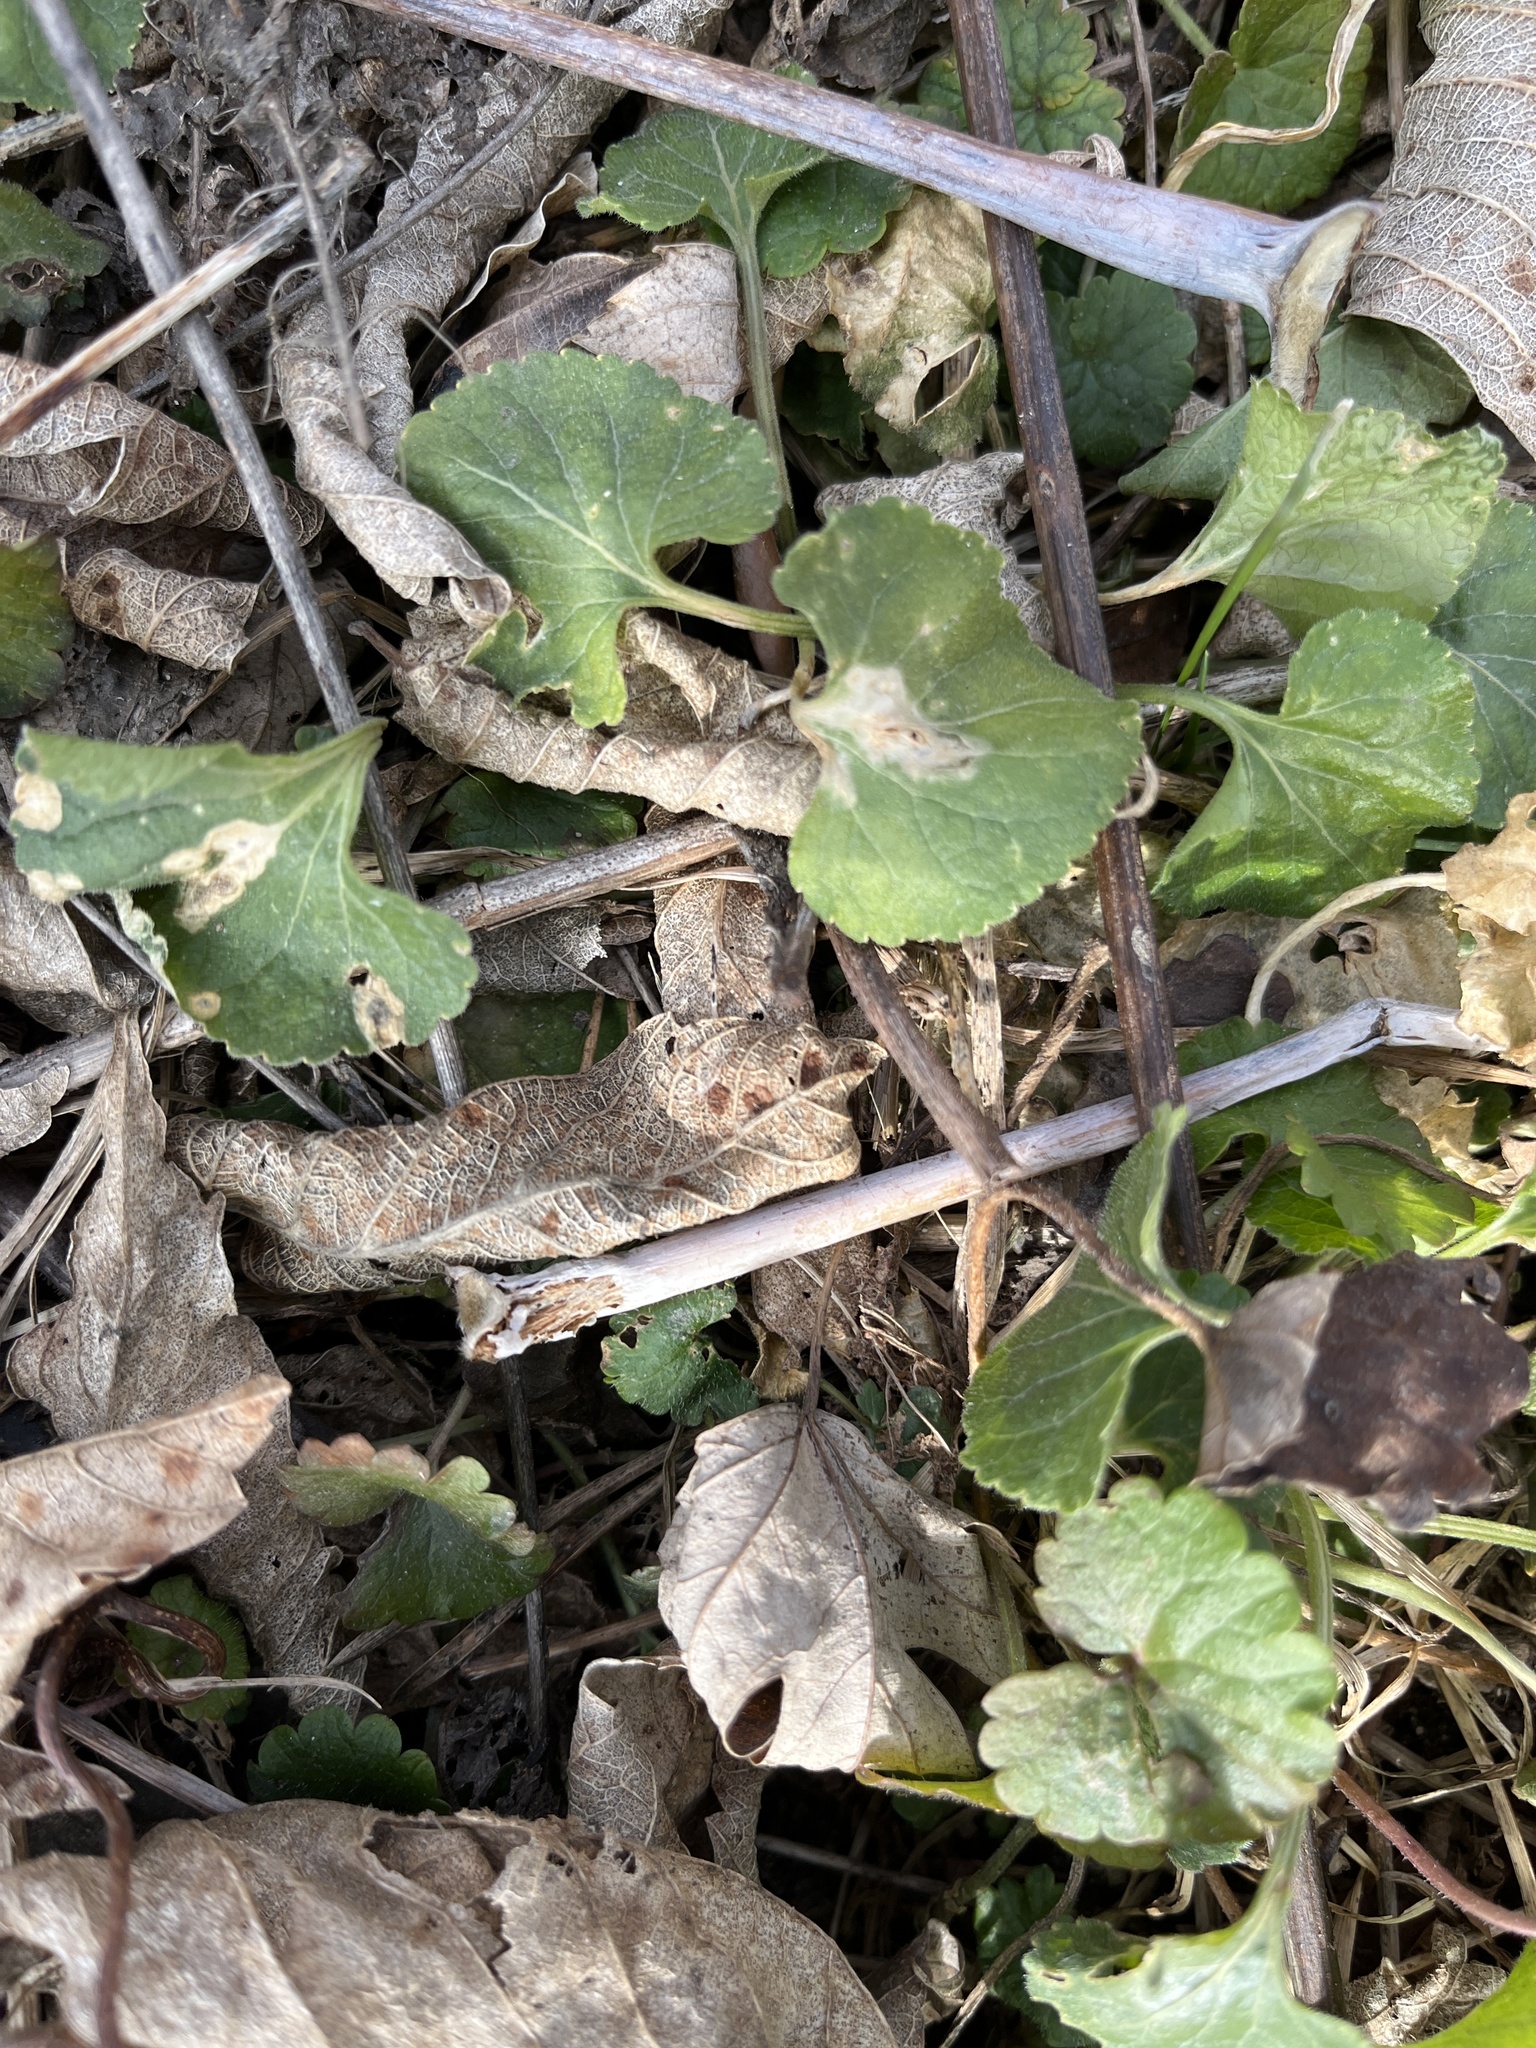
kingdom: Plantae
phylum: Tracheophyta
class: Magnoliopsida
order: Lamiales
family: Lamiaceae
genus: Glechoma
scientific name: Glechoma hederacea
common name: Ground ivy
